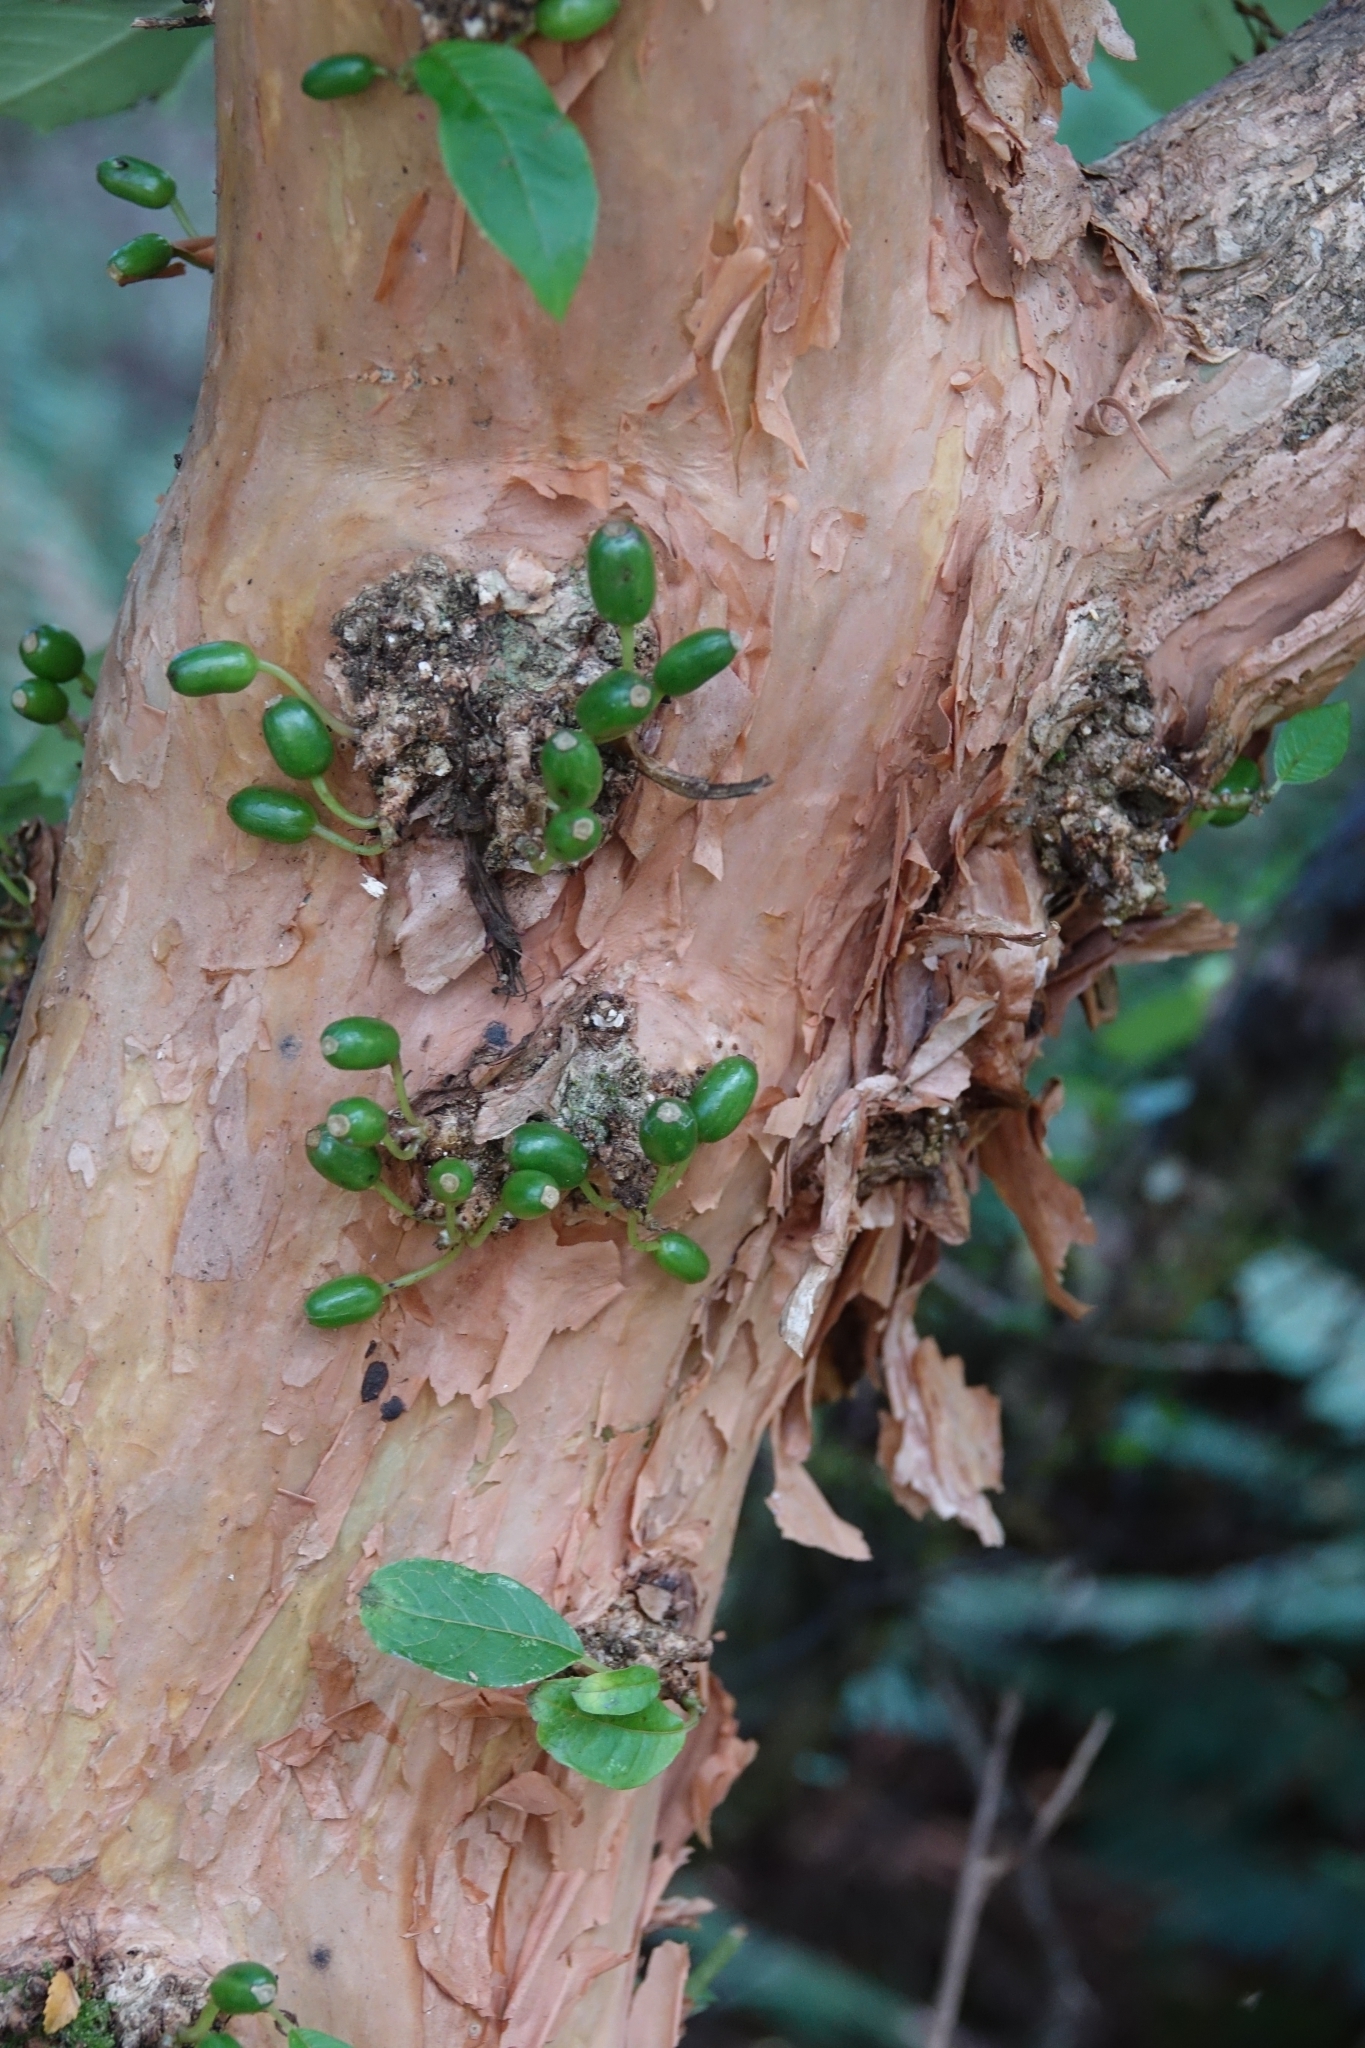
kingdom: Plantae
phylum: Tracheophyta
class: Magnoliopsida
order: Myrtales
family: Onagraceae
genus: Fuchsia
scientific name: Fuchsia excorticata
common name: Tree fuchsia
